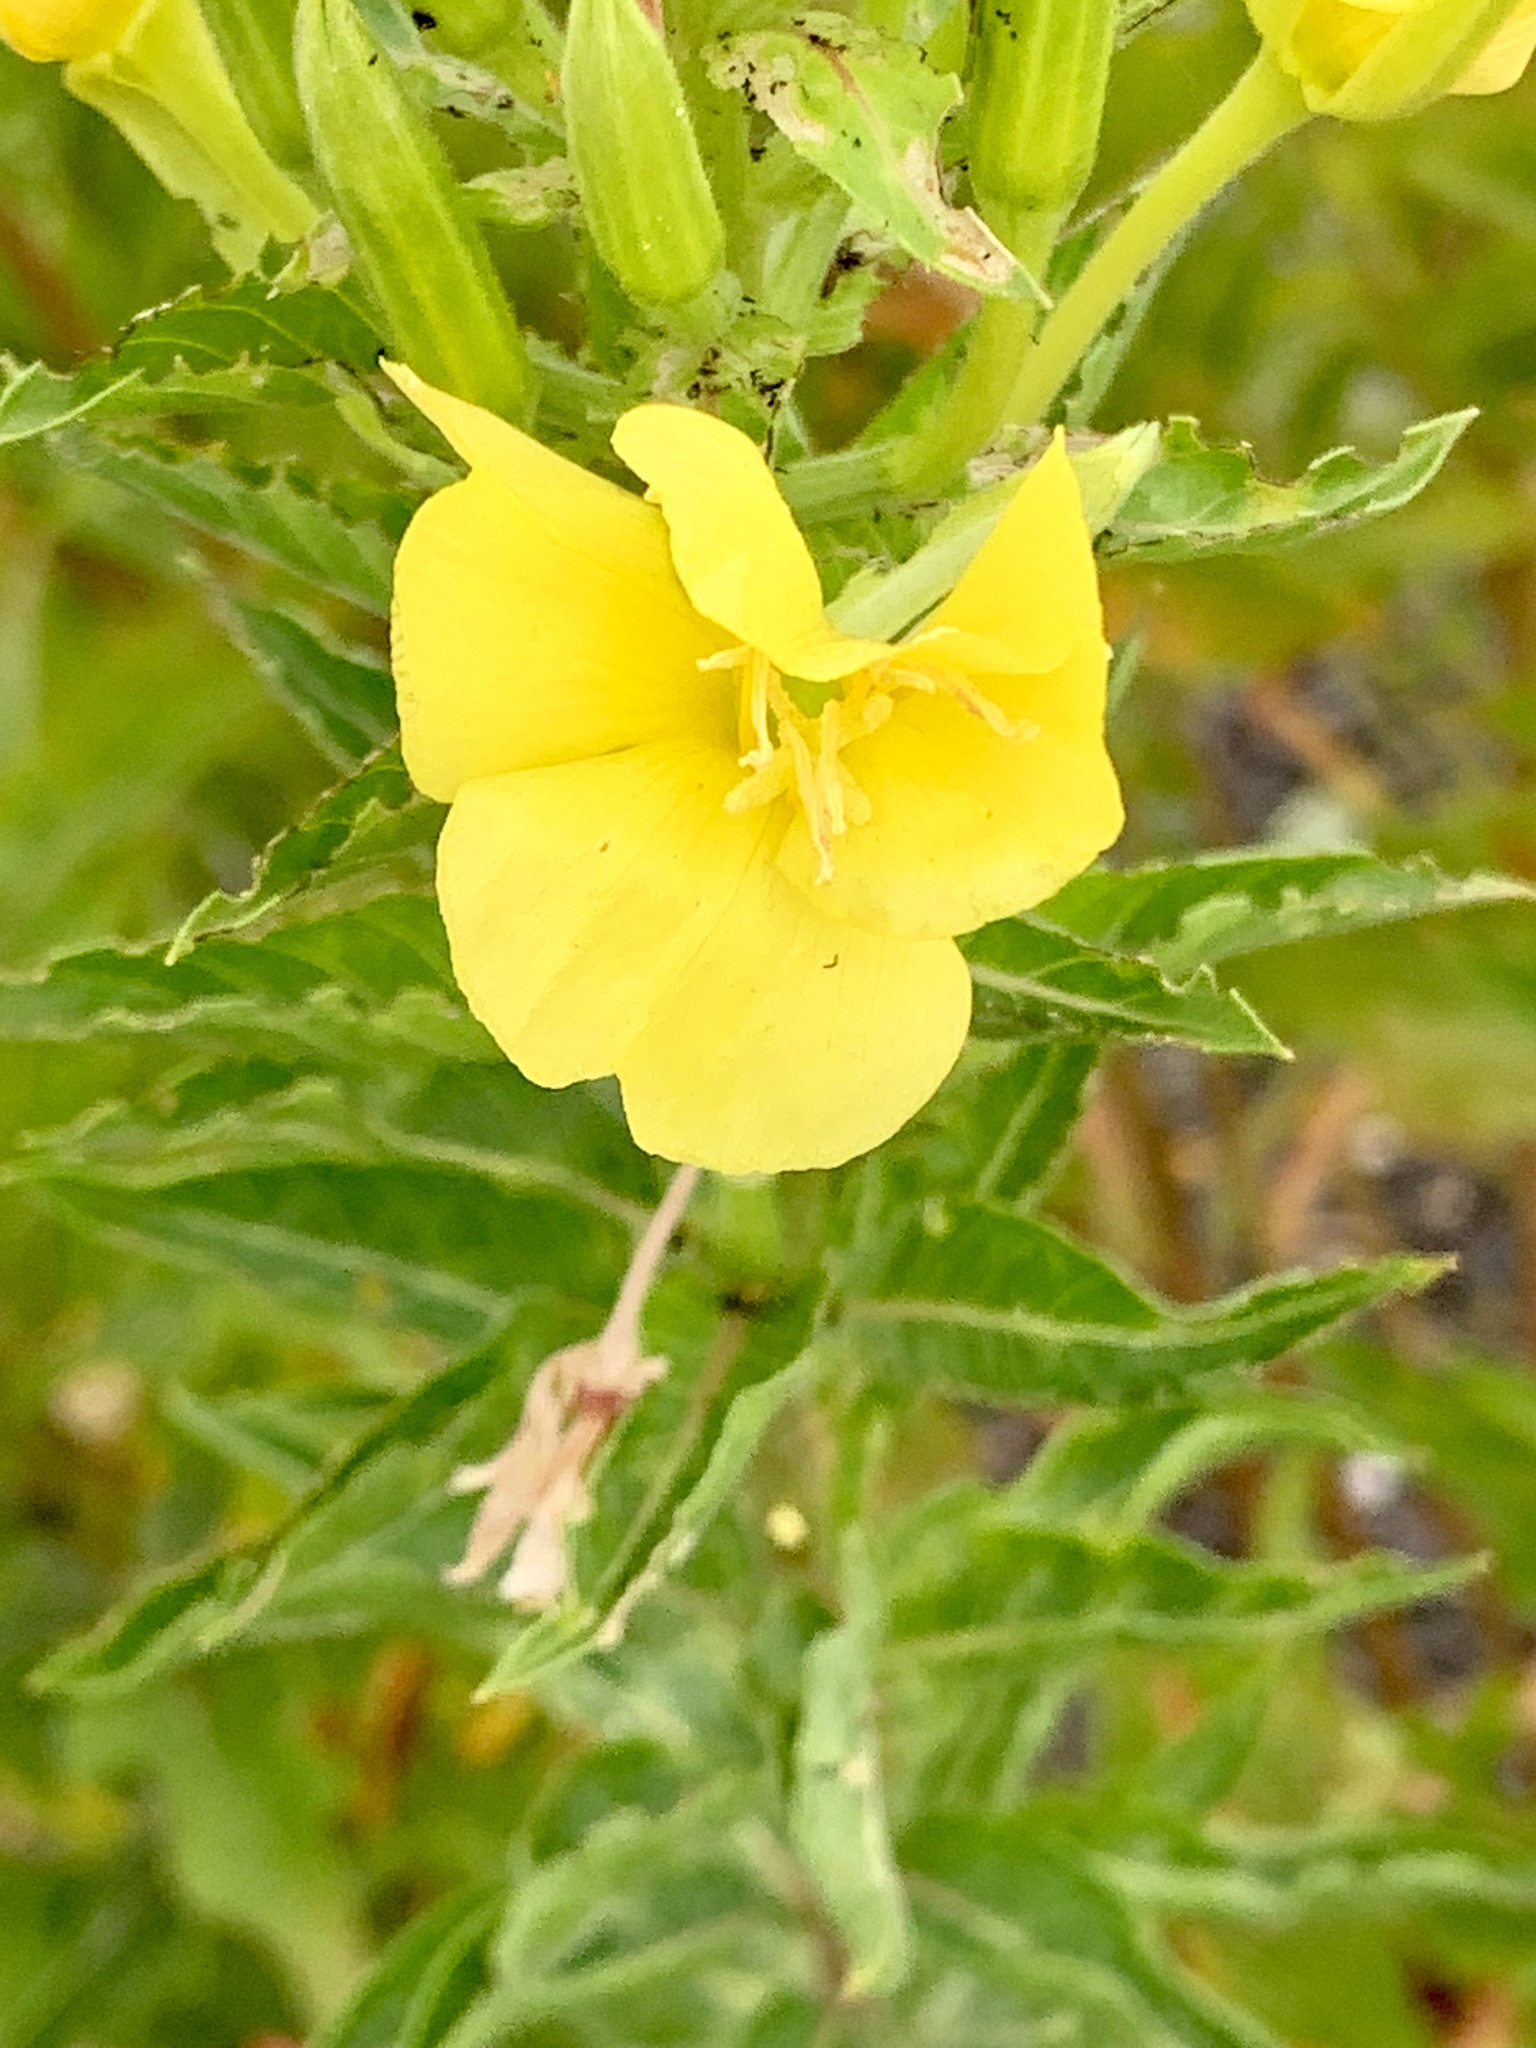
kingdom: Plantae
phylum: Tracheophyta
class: Magnoliopsida
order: Myrtales
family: Onagraceae
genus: Oenothera
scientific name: Oenothera biennis
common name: Common evening-primrose
